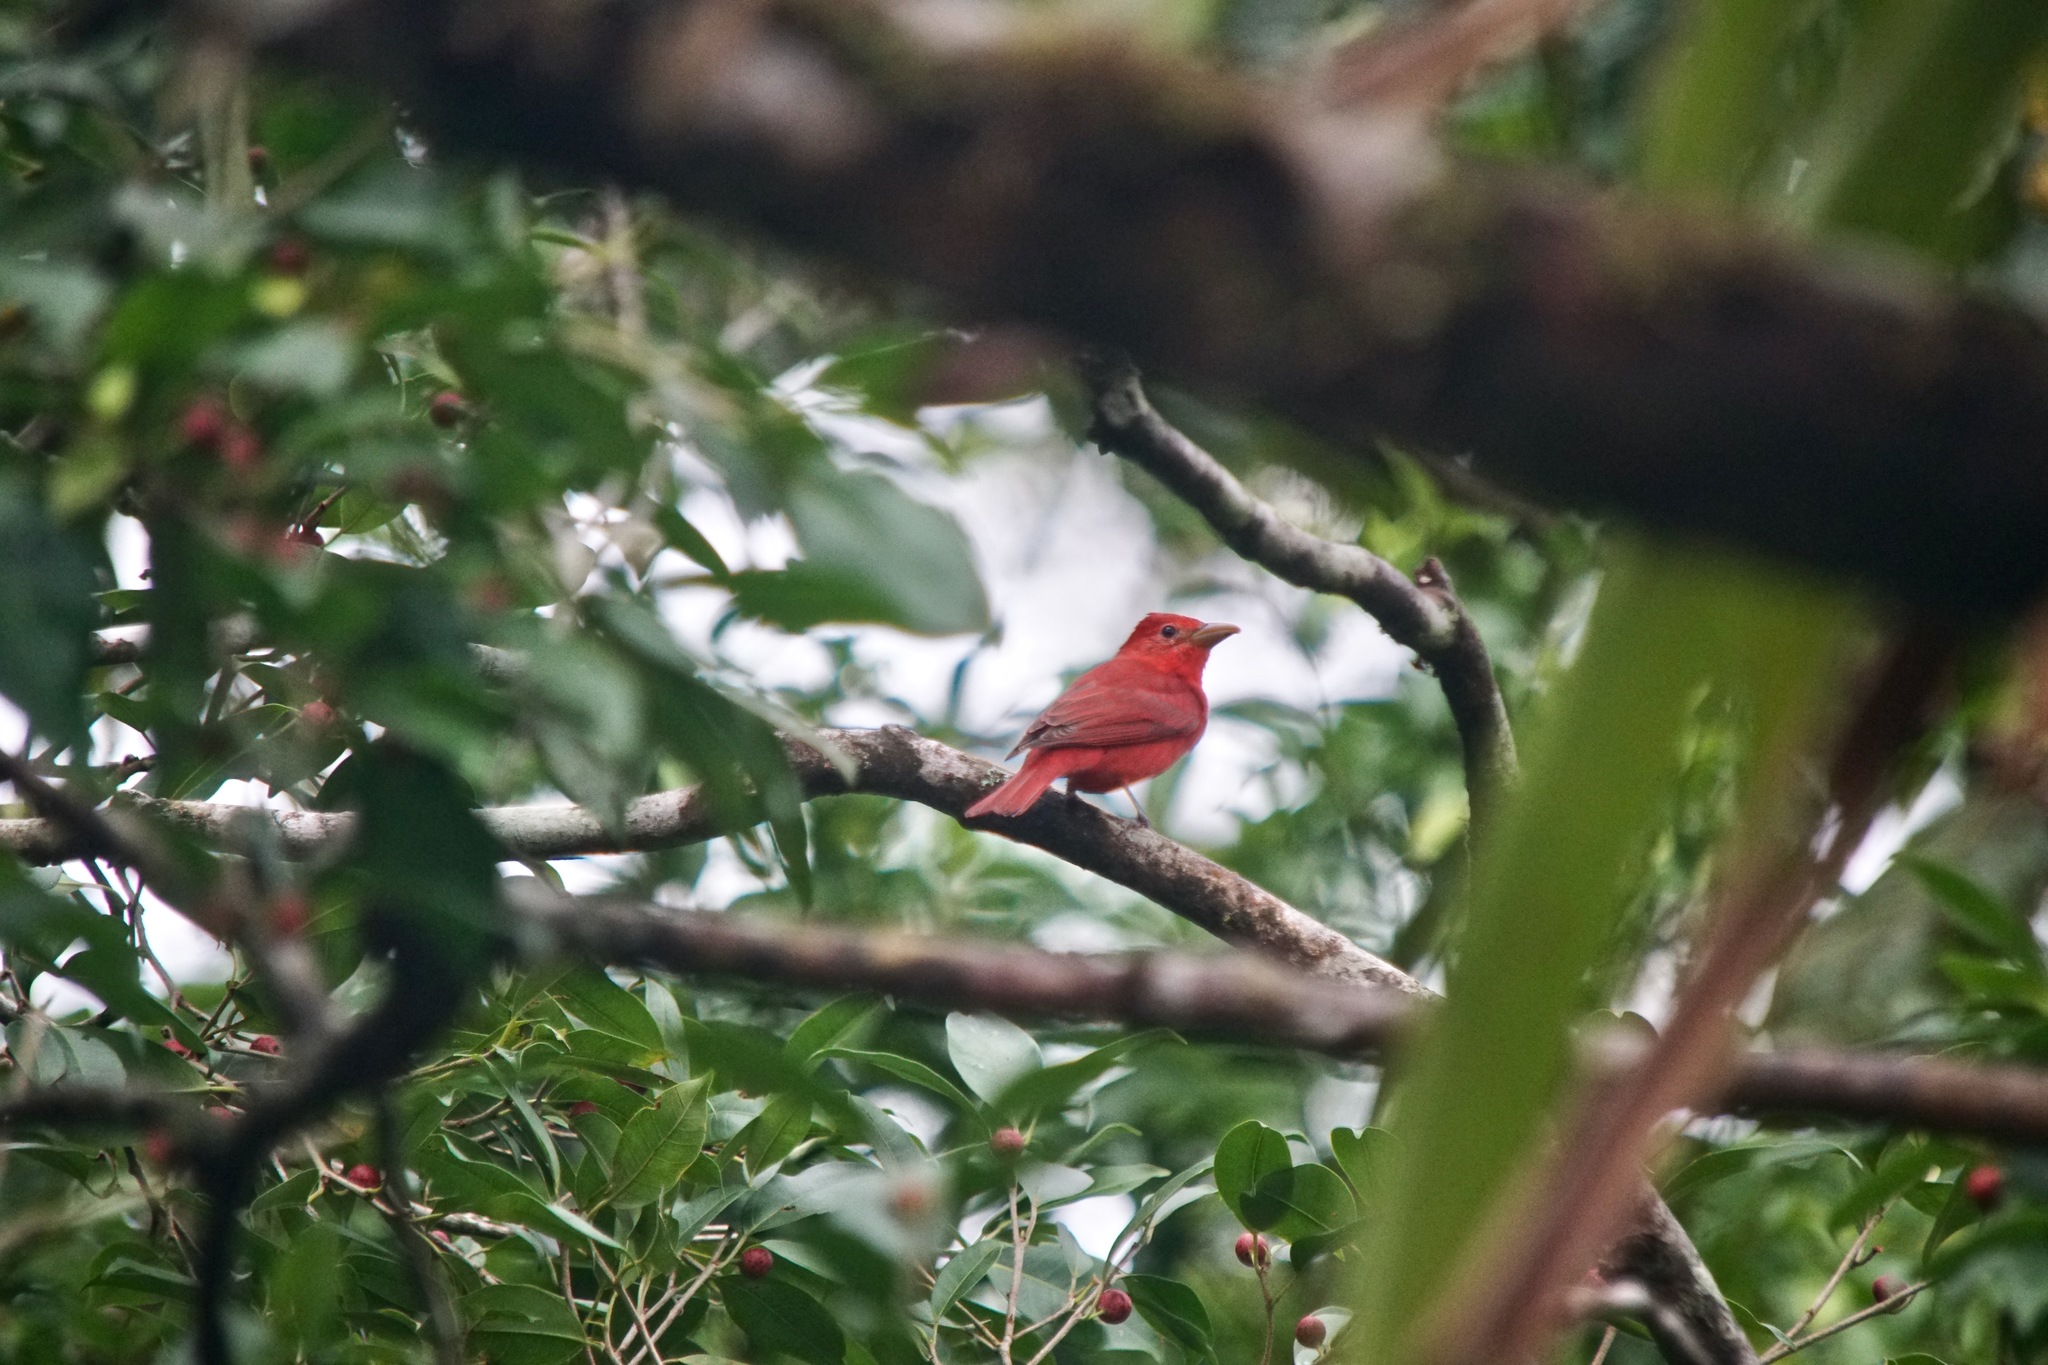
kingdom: Animalia
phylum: Chordata
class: Aves
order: Passeriformes
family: Cardinalidae
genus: Piranga
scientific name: Piranga rubra
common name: Summer tanager
